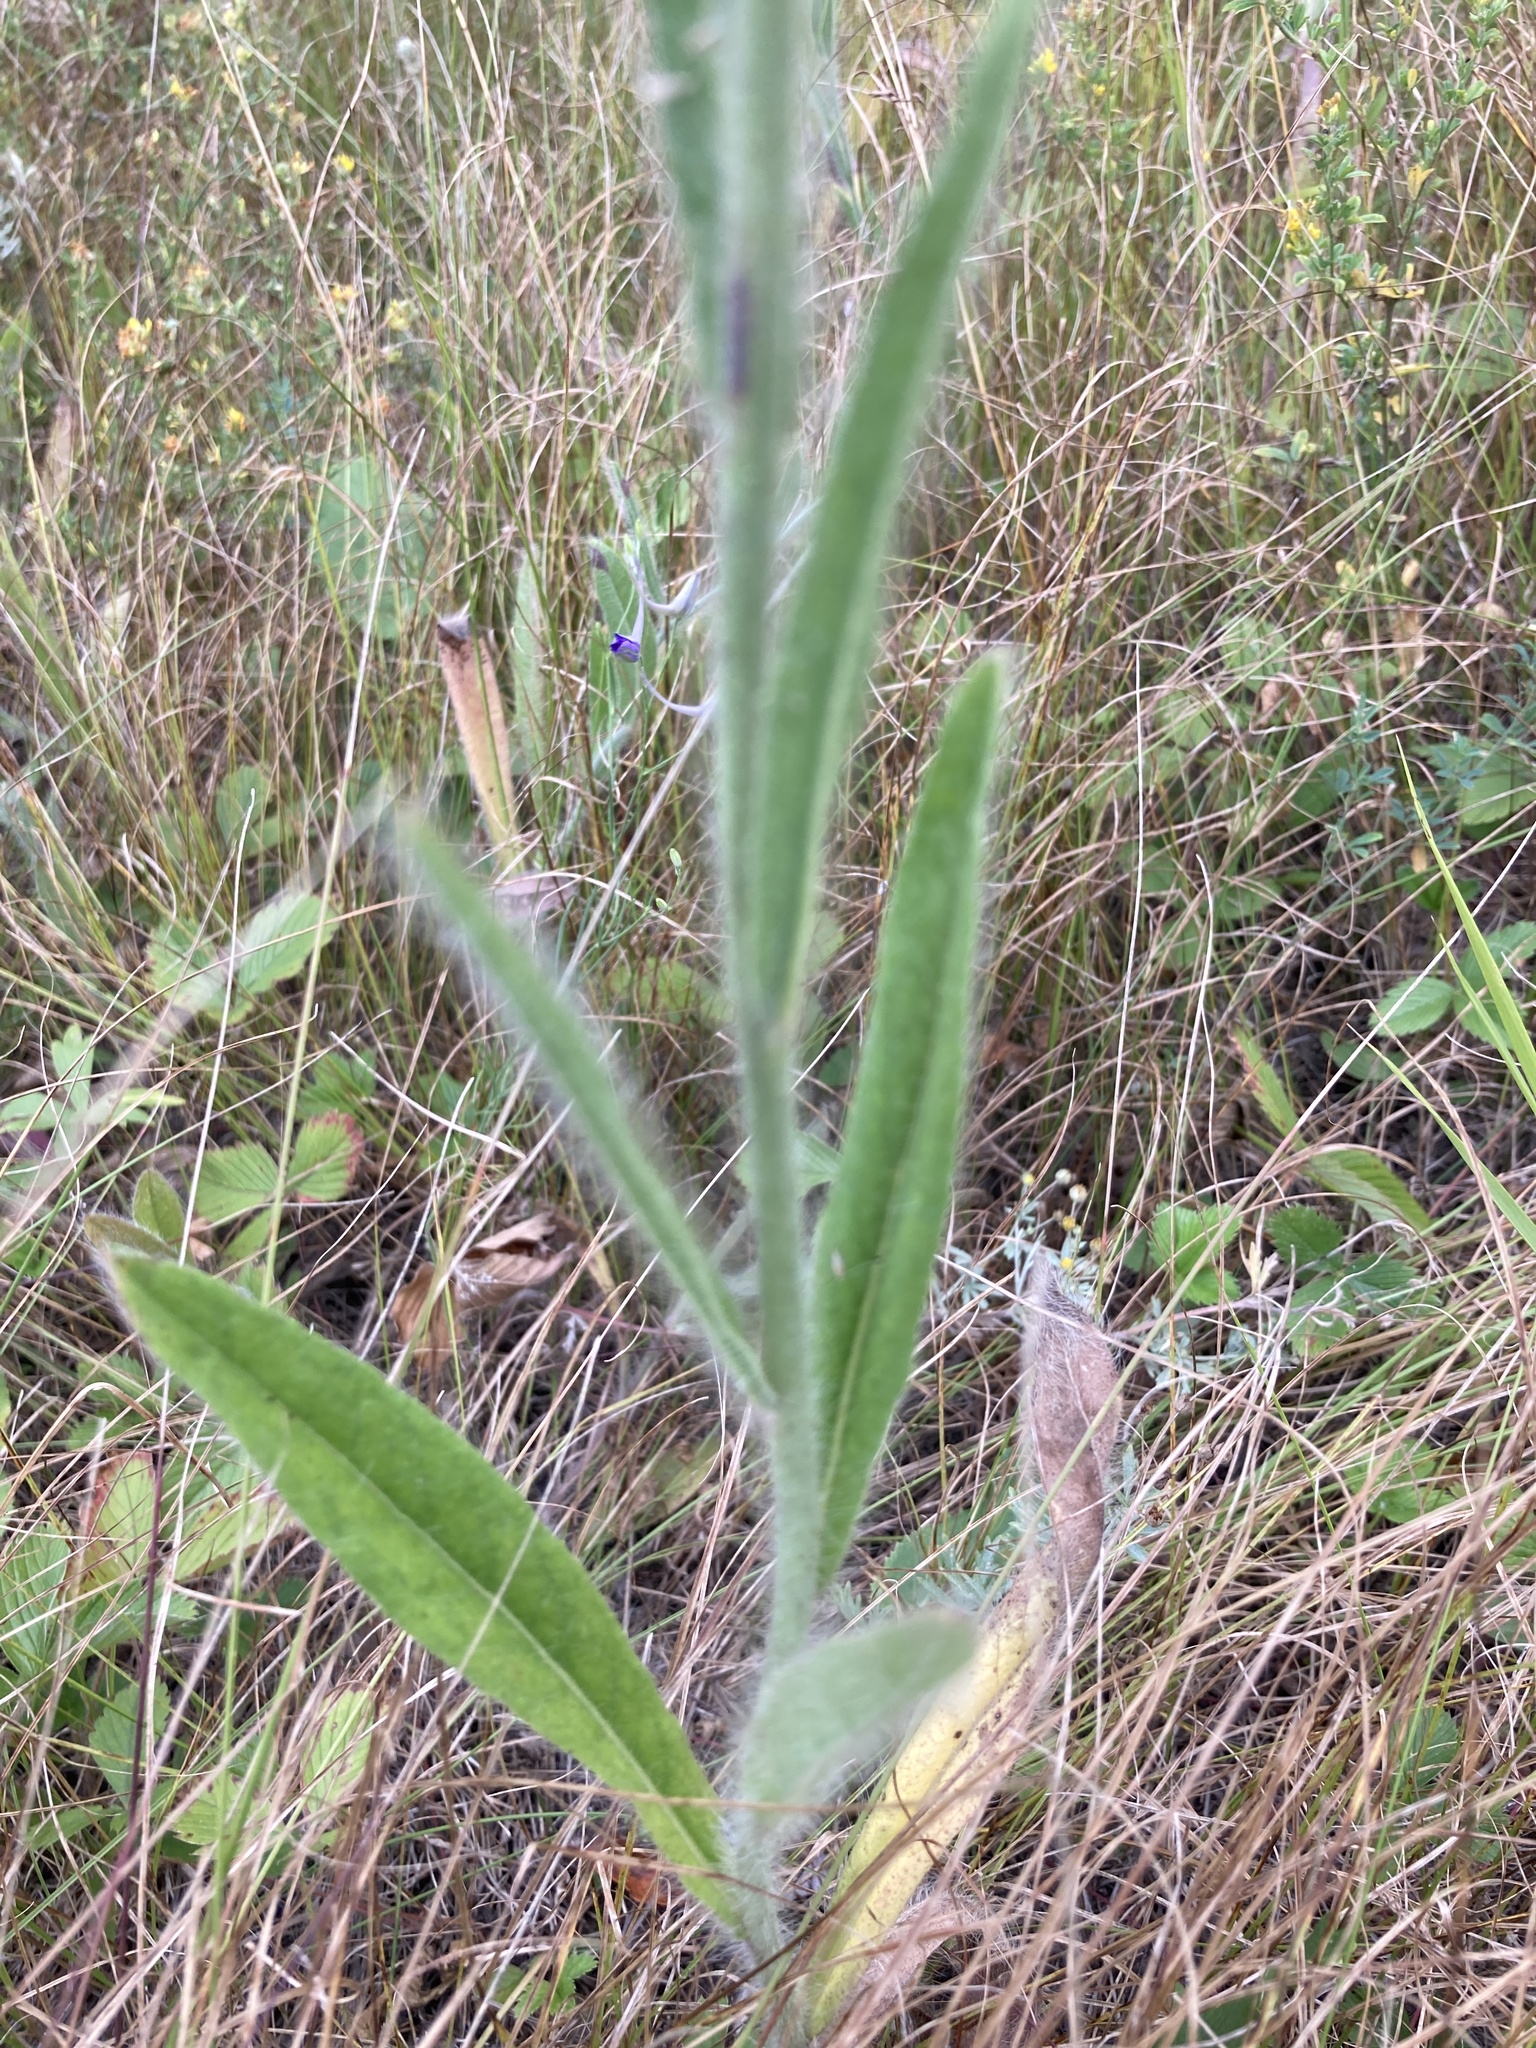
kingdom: Plantae
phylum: Tracheophyta
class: Magnoliopsida
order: Asterales
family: Asteraceae
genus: Pilosella
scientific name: Pilosella echioides
